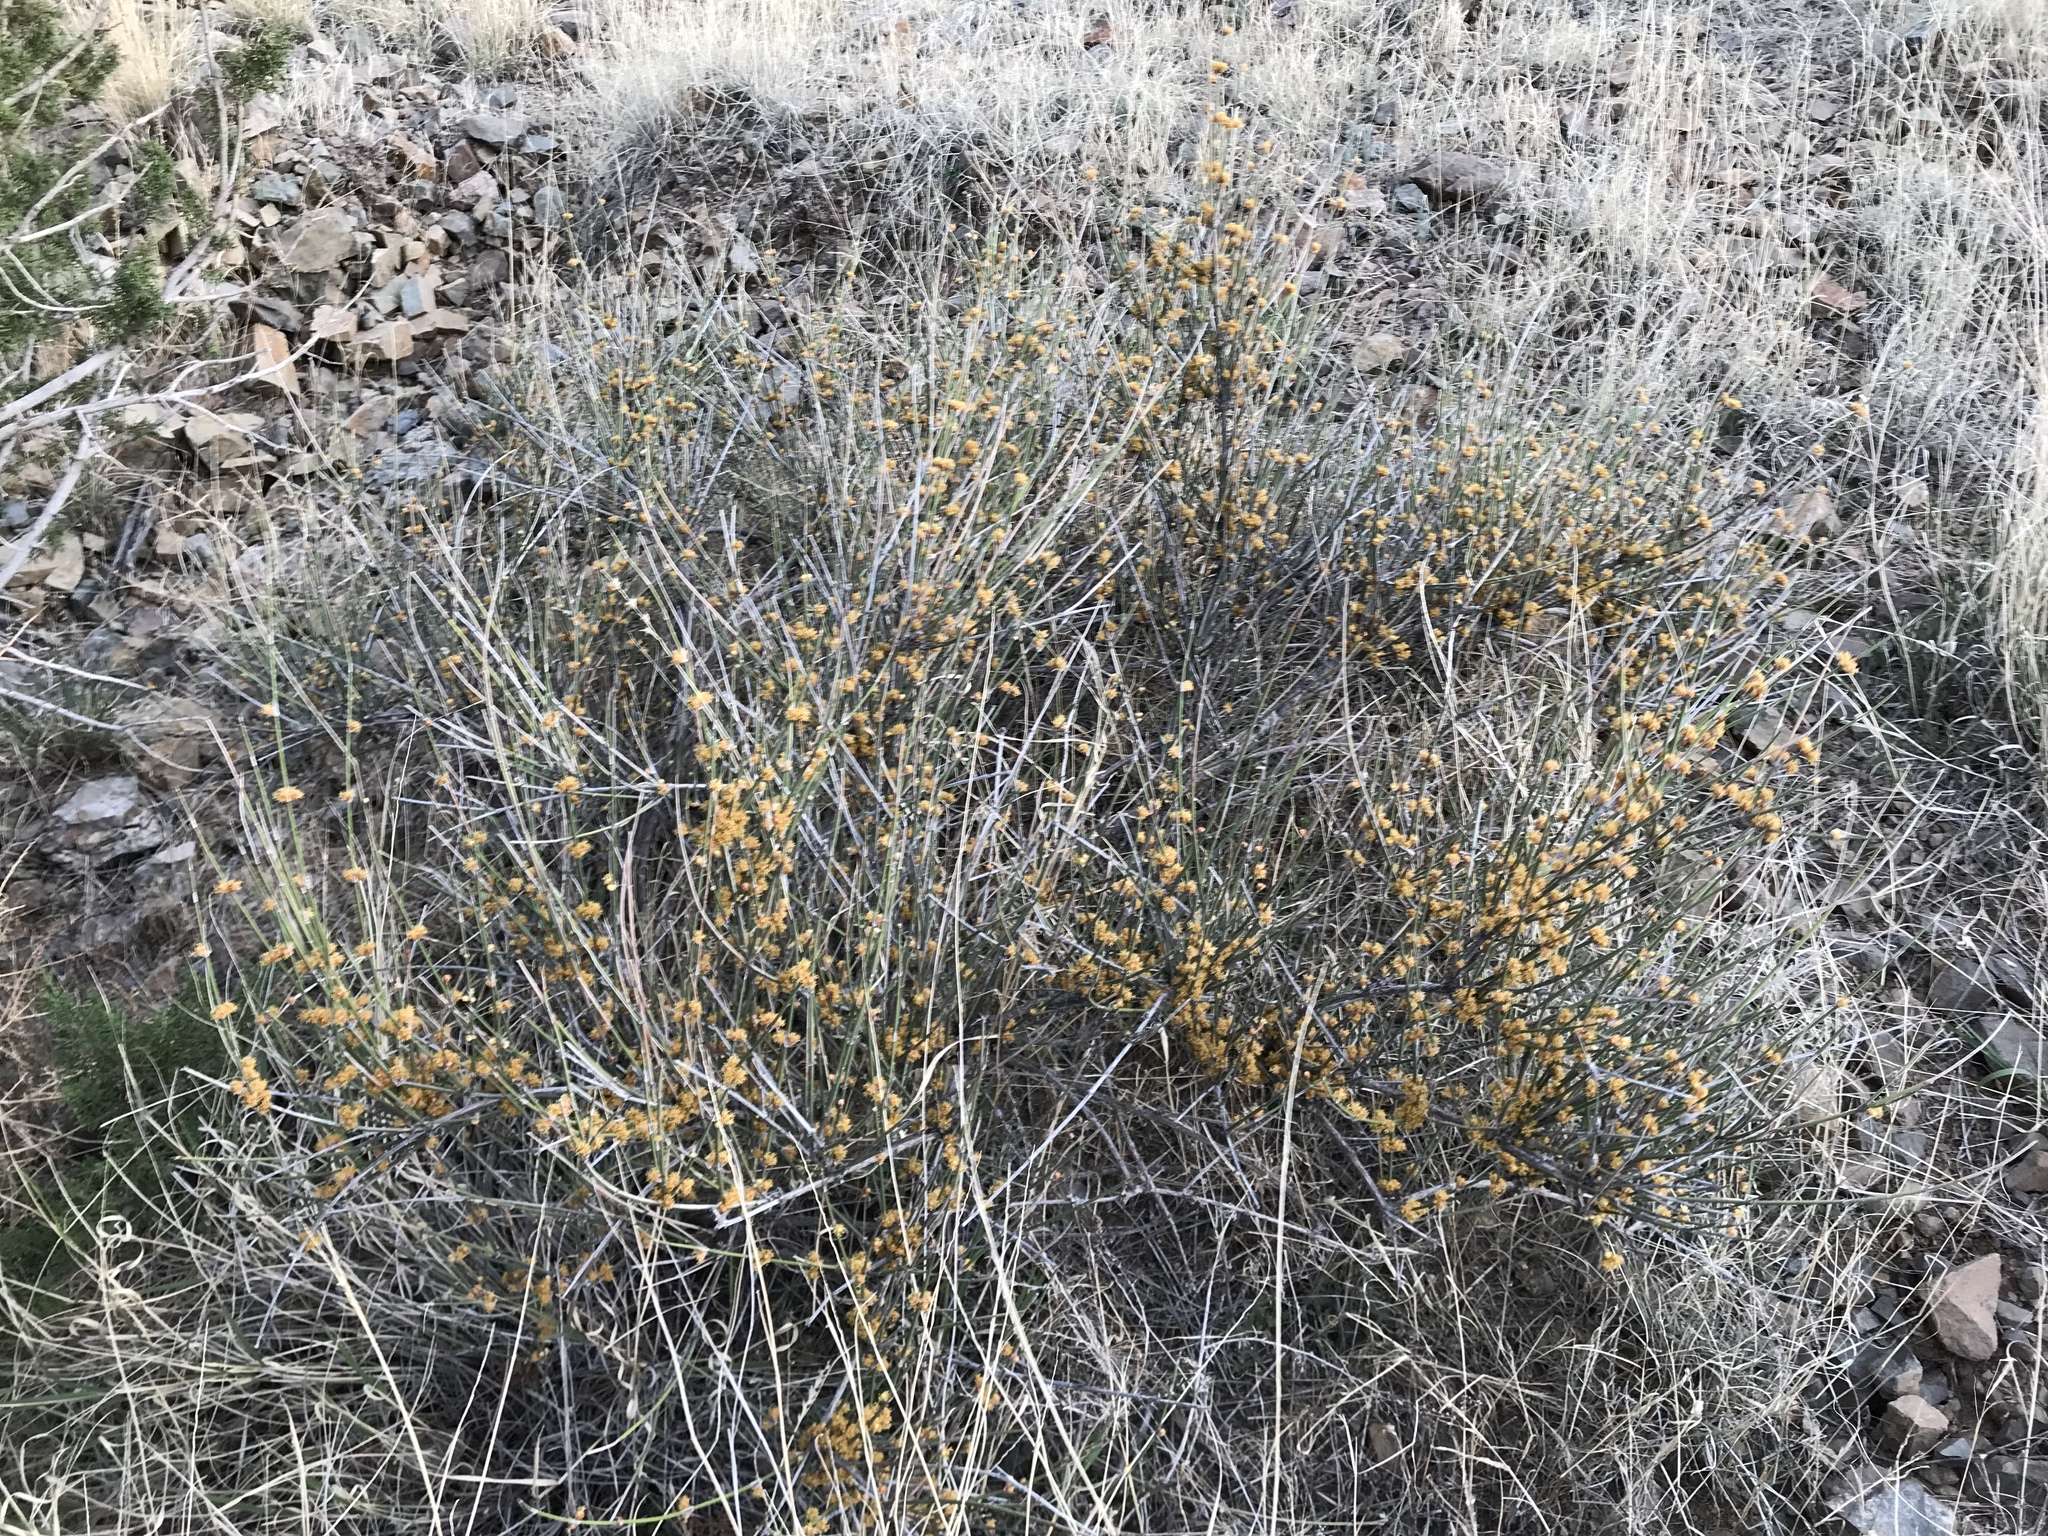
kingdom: Plantae
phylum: Tracheophyta
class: Gnetopsida
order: Ephedrales
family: Ephedraceae
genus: Ephedra
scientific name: Ephedra trifurca
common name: Mexican-tea
